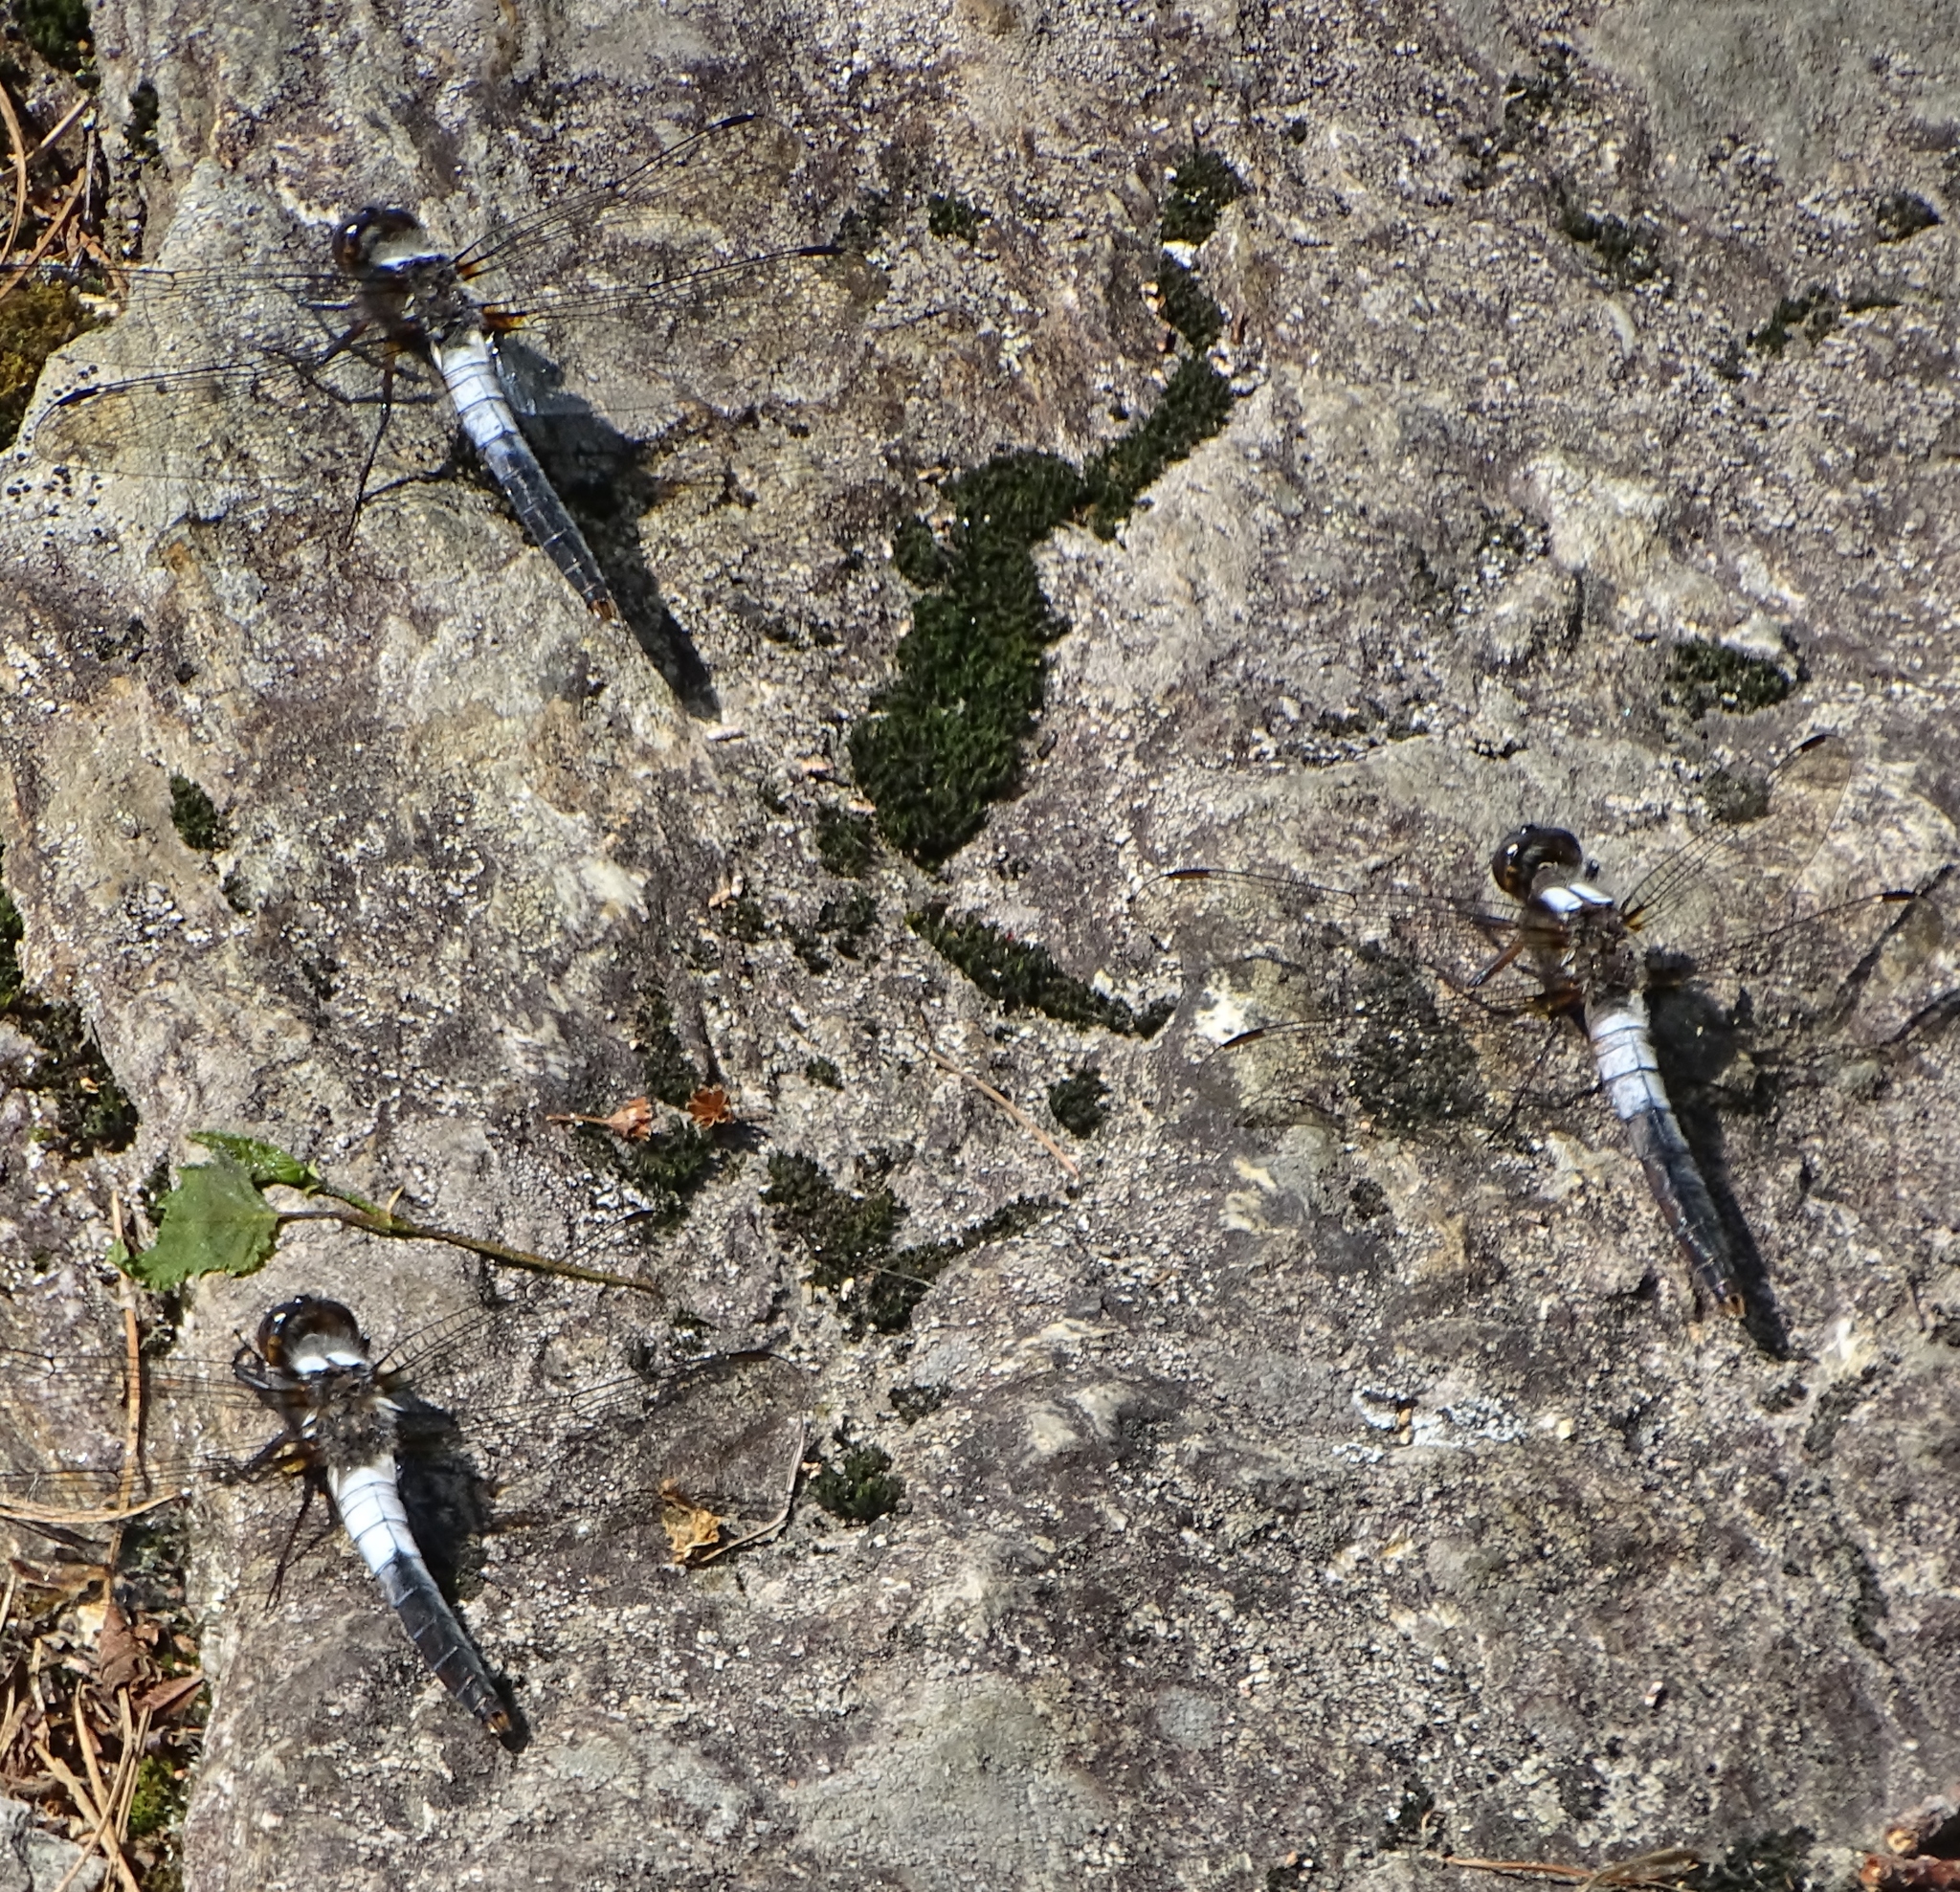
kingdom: Animalia
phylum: Arthropoda
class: Insecta
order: Odonata
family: Libellulidae
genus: Ladona
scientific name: Ladona julia
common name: Chalk-fronted corporal
